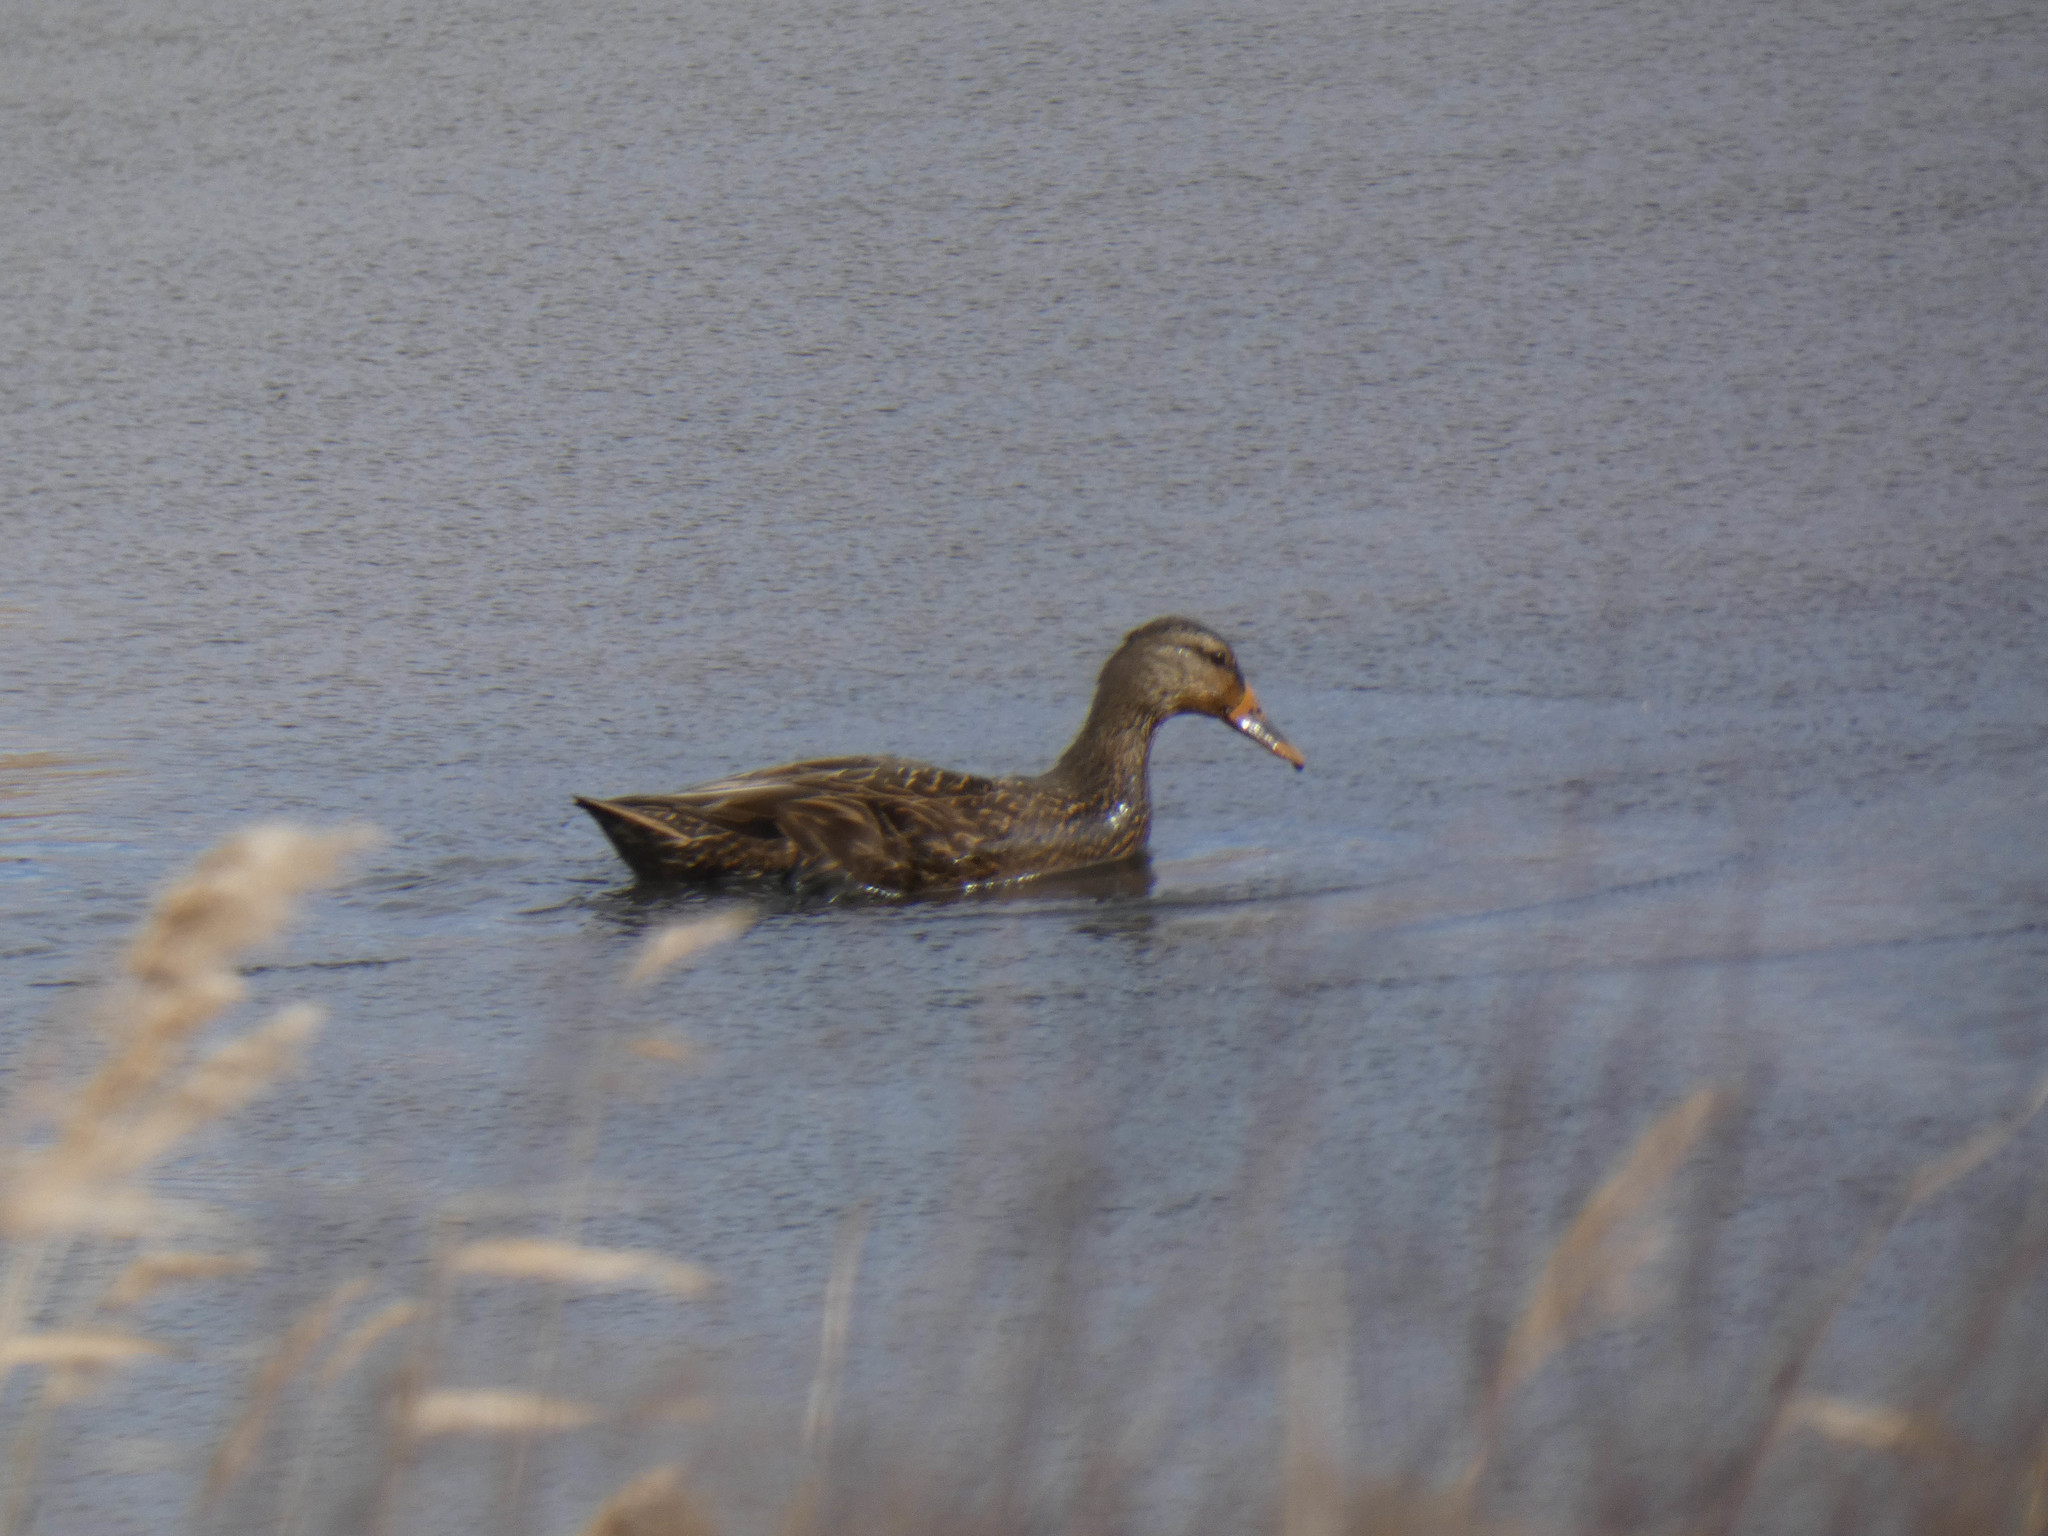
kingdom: Animalia
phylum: Chordata
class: Aves
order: Anseriformes
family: Anatidae
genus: Anas
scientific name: Anas rubripes
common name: American black duck
